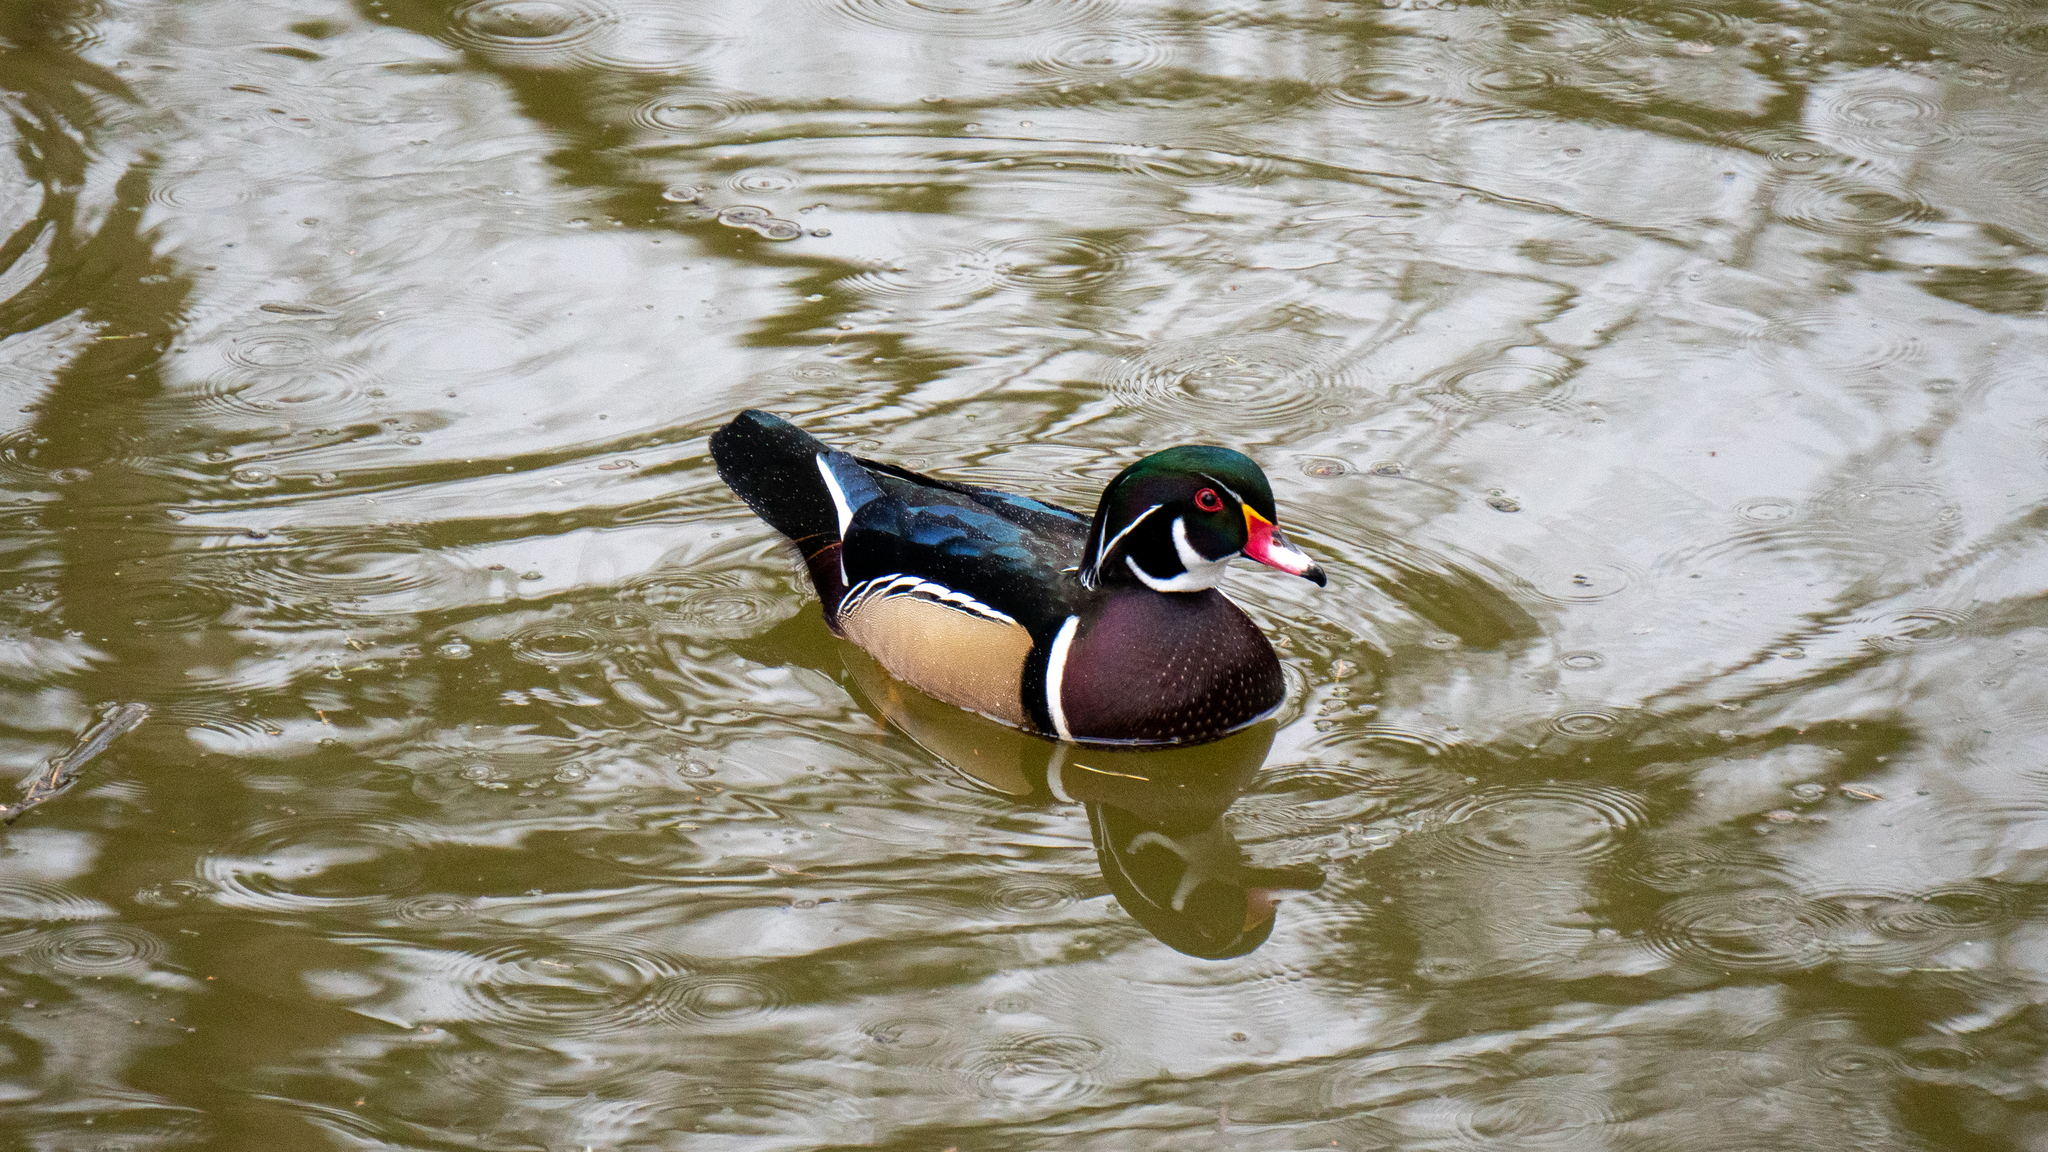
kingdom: Animalia
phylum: Chordata
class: Aves
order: Anseriformes
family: Anatidae
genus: Aix
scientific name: Aix sponsa
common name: Wood duck
